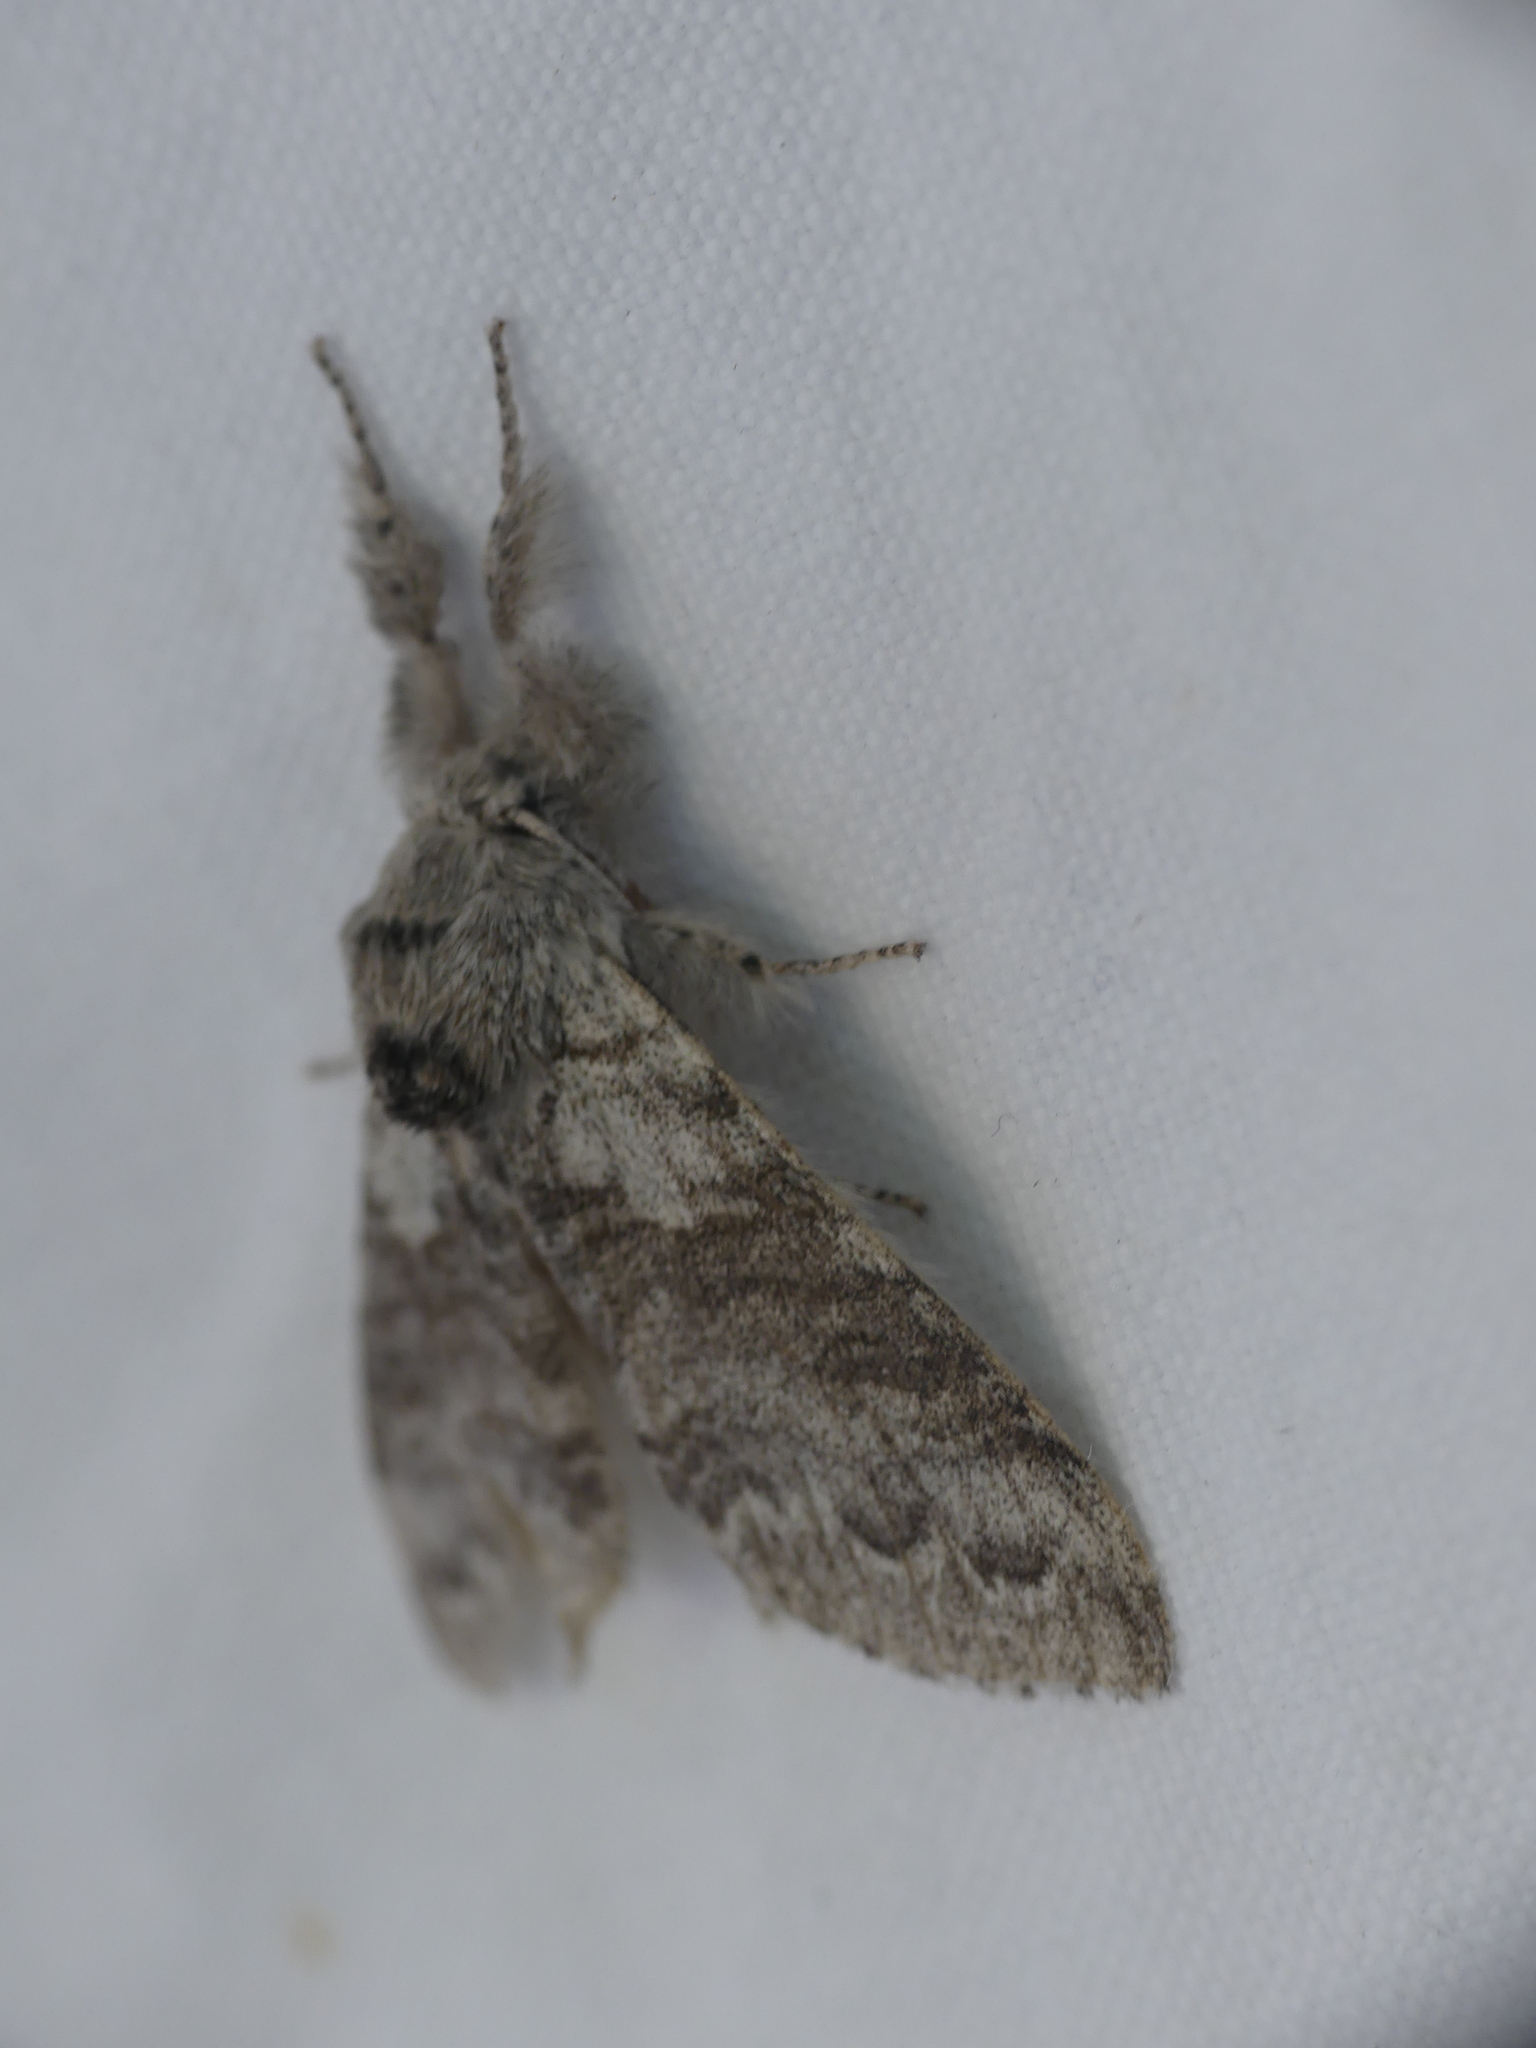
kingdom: Animalia
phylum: Arthropoda
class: Insecta
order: Lepidoptera
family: Notodontidae
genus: Stauropus
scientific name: Stauropus fagi
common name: Lobster moth
